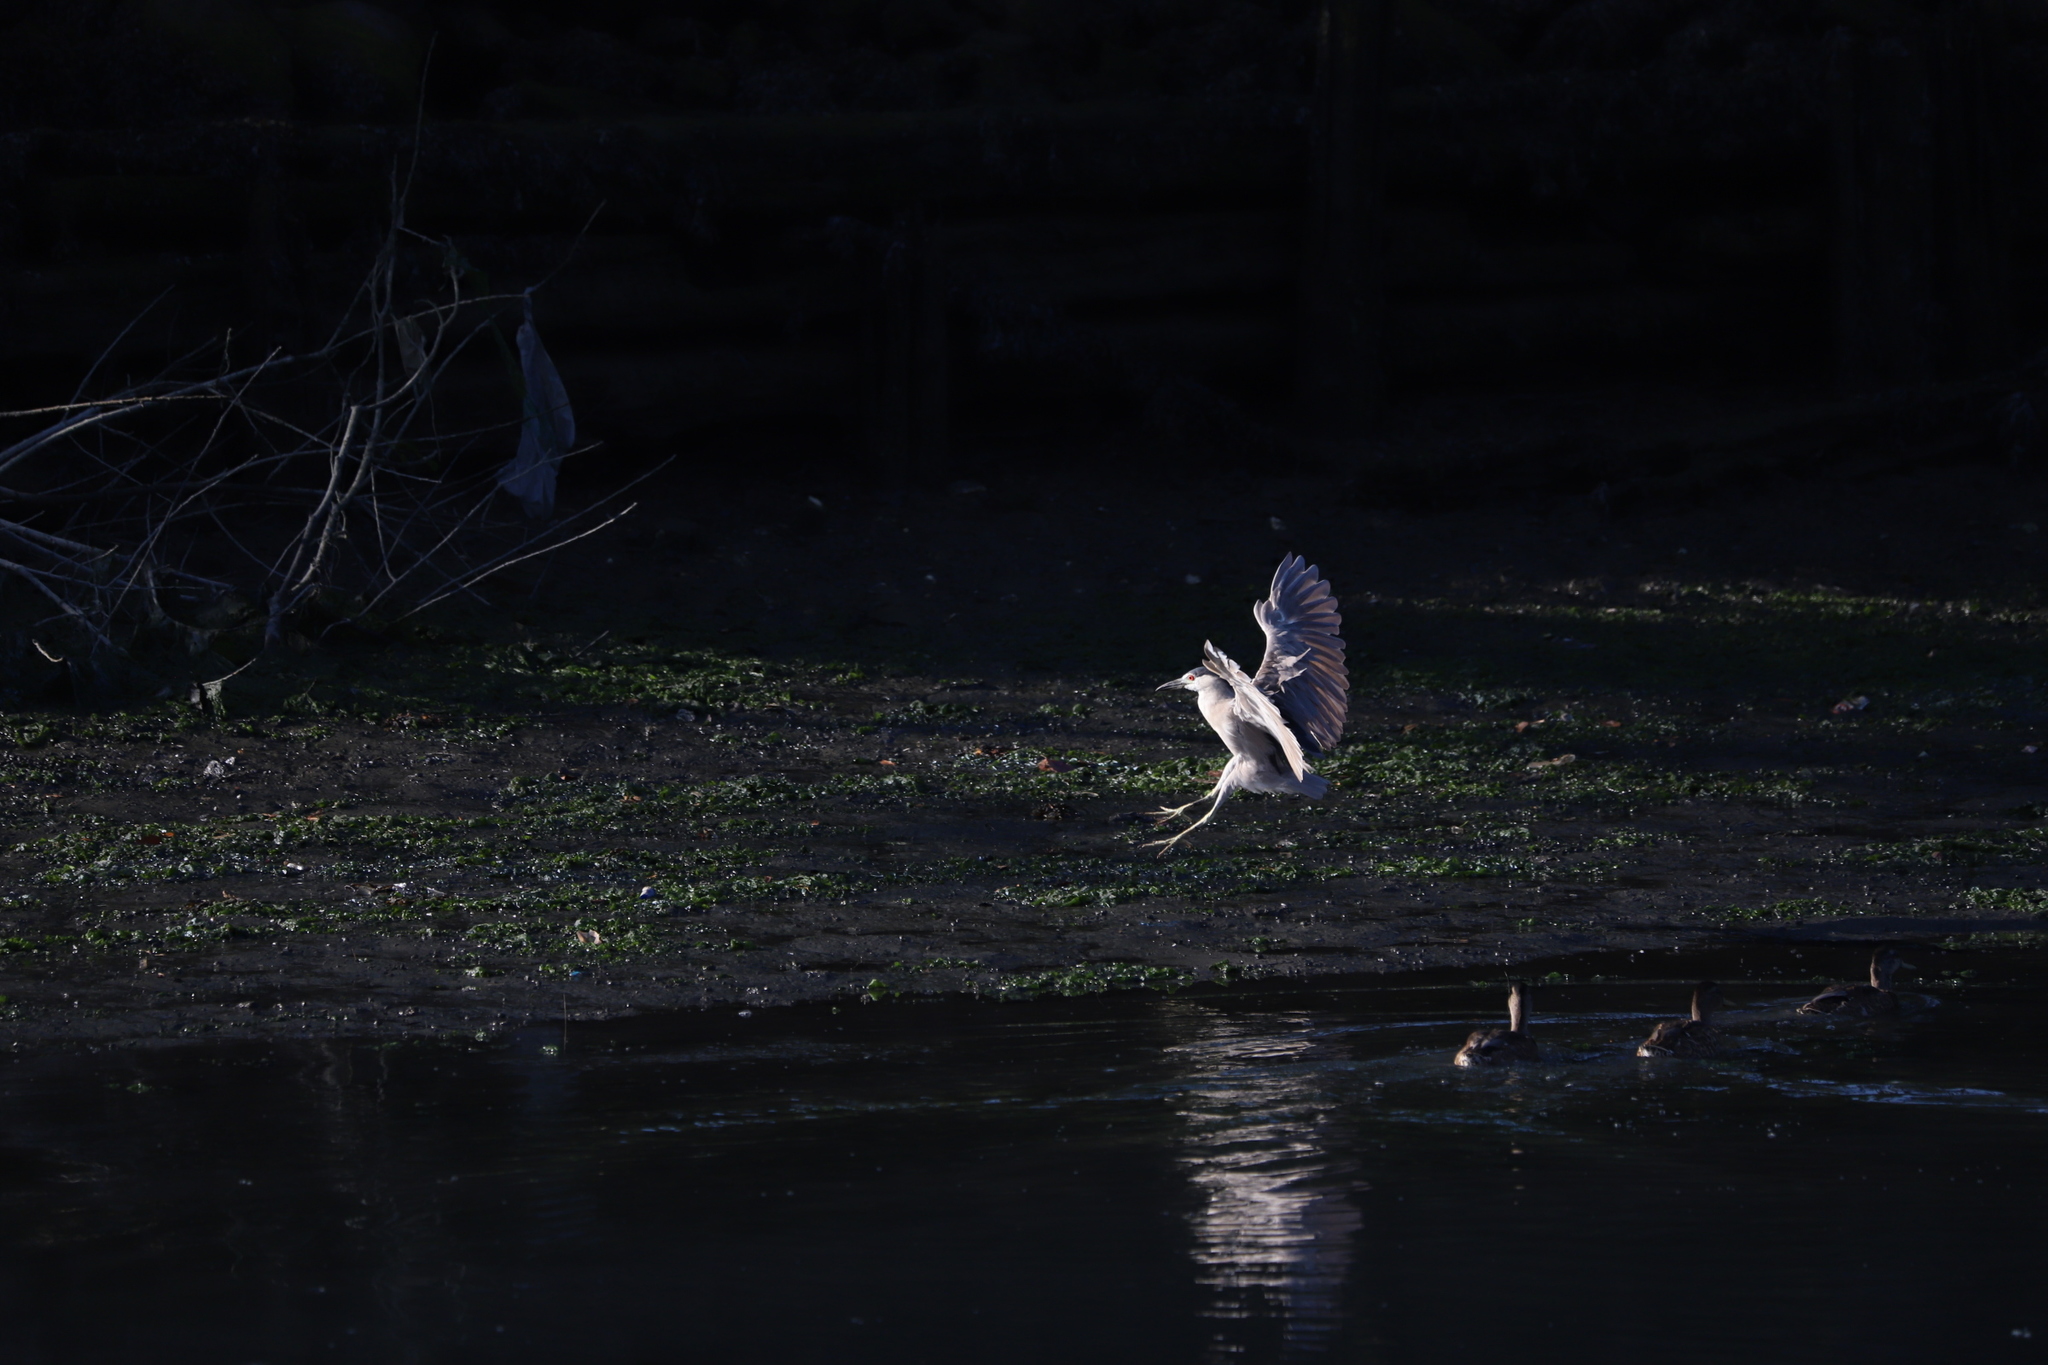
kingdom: Animalia
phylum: Chordata
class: Aves
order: Pelecaniformes
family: Ardeidae
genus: Nycticorax
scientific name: Nycticorax nycticorax
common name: Black-crowned night heron
